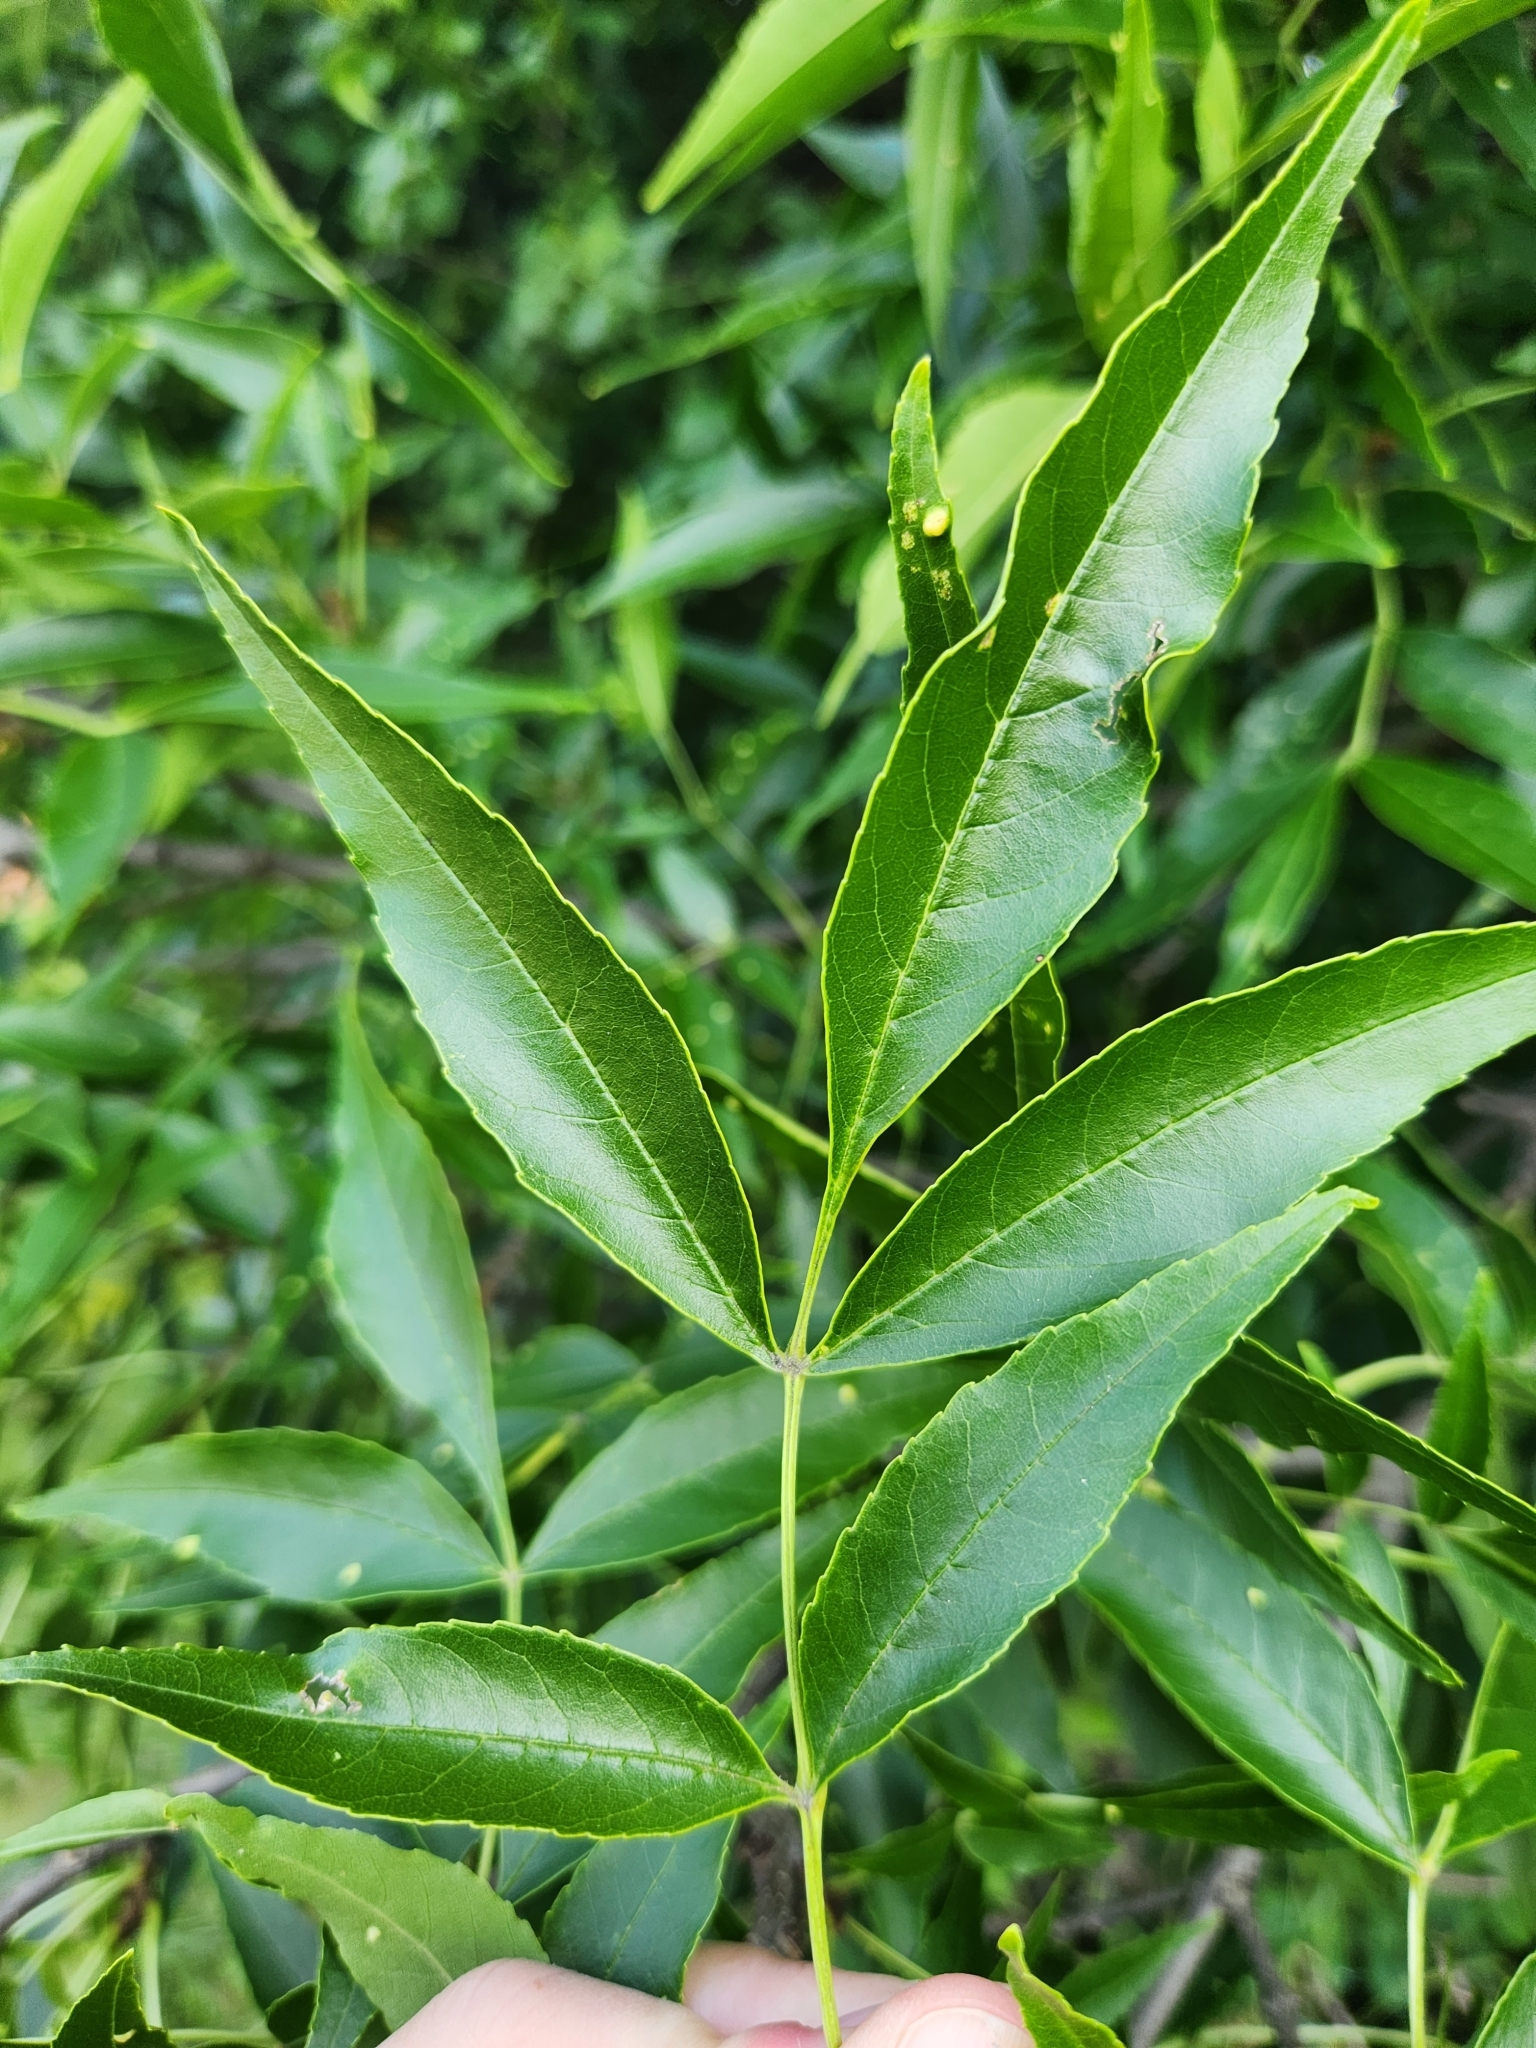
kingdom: Plantae
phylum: Tracheophyta
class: Magnoliopsida
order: Lamiales
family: Oleaceae
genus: Fraxinus
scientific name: Fraxinus pennsylvanica
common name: Green ash
